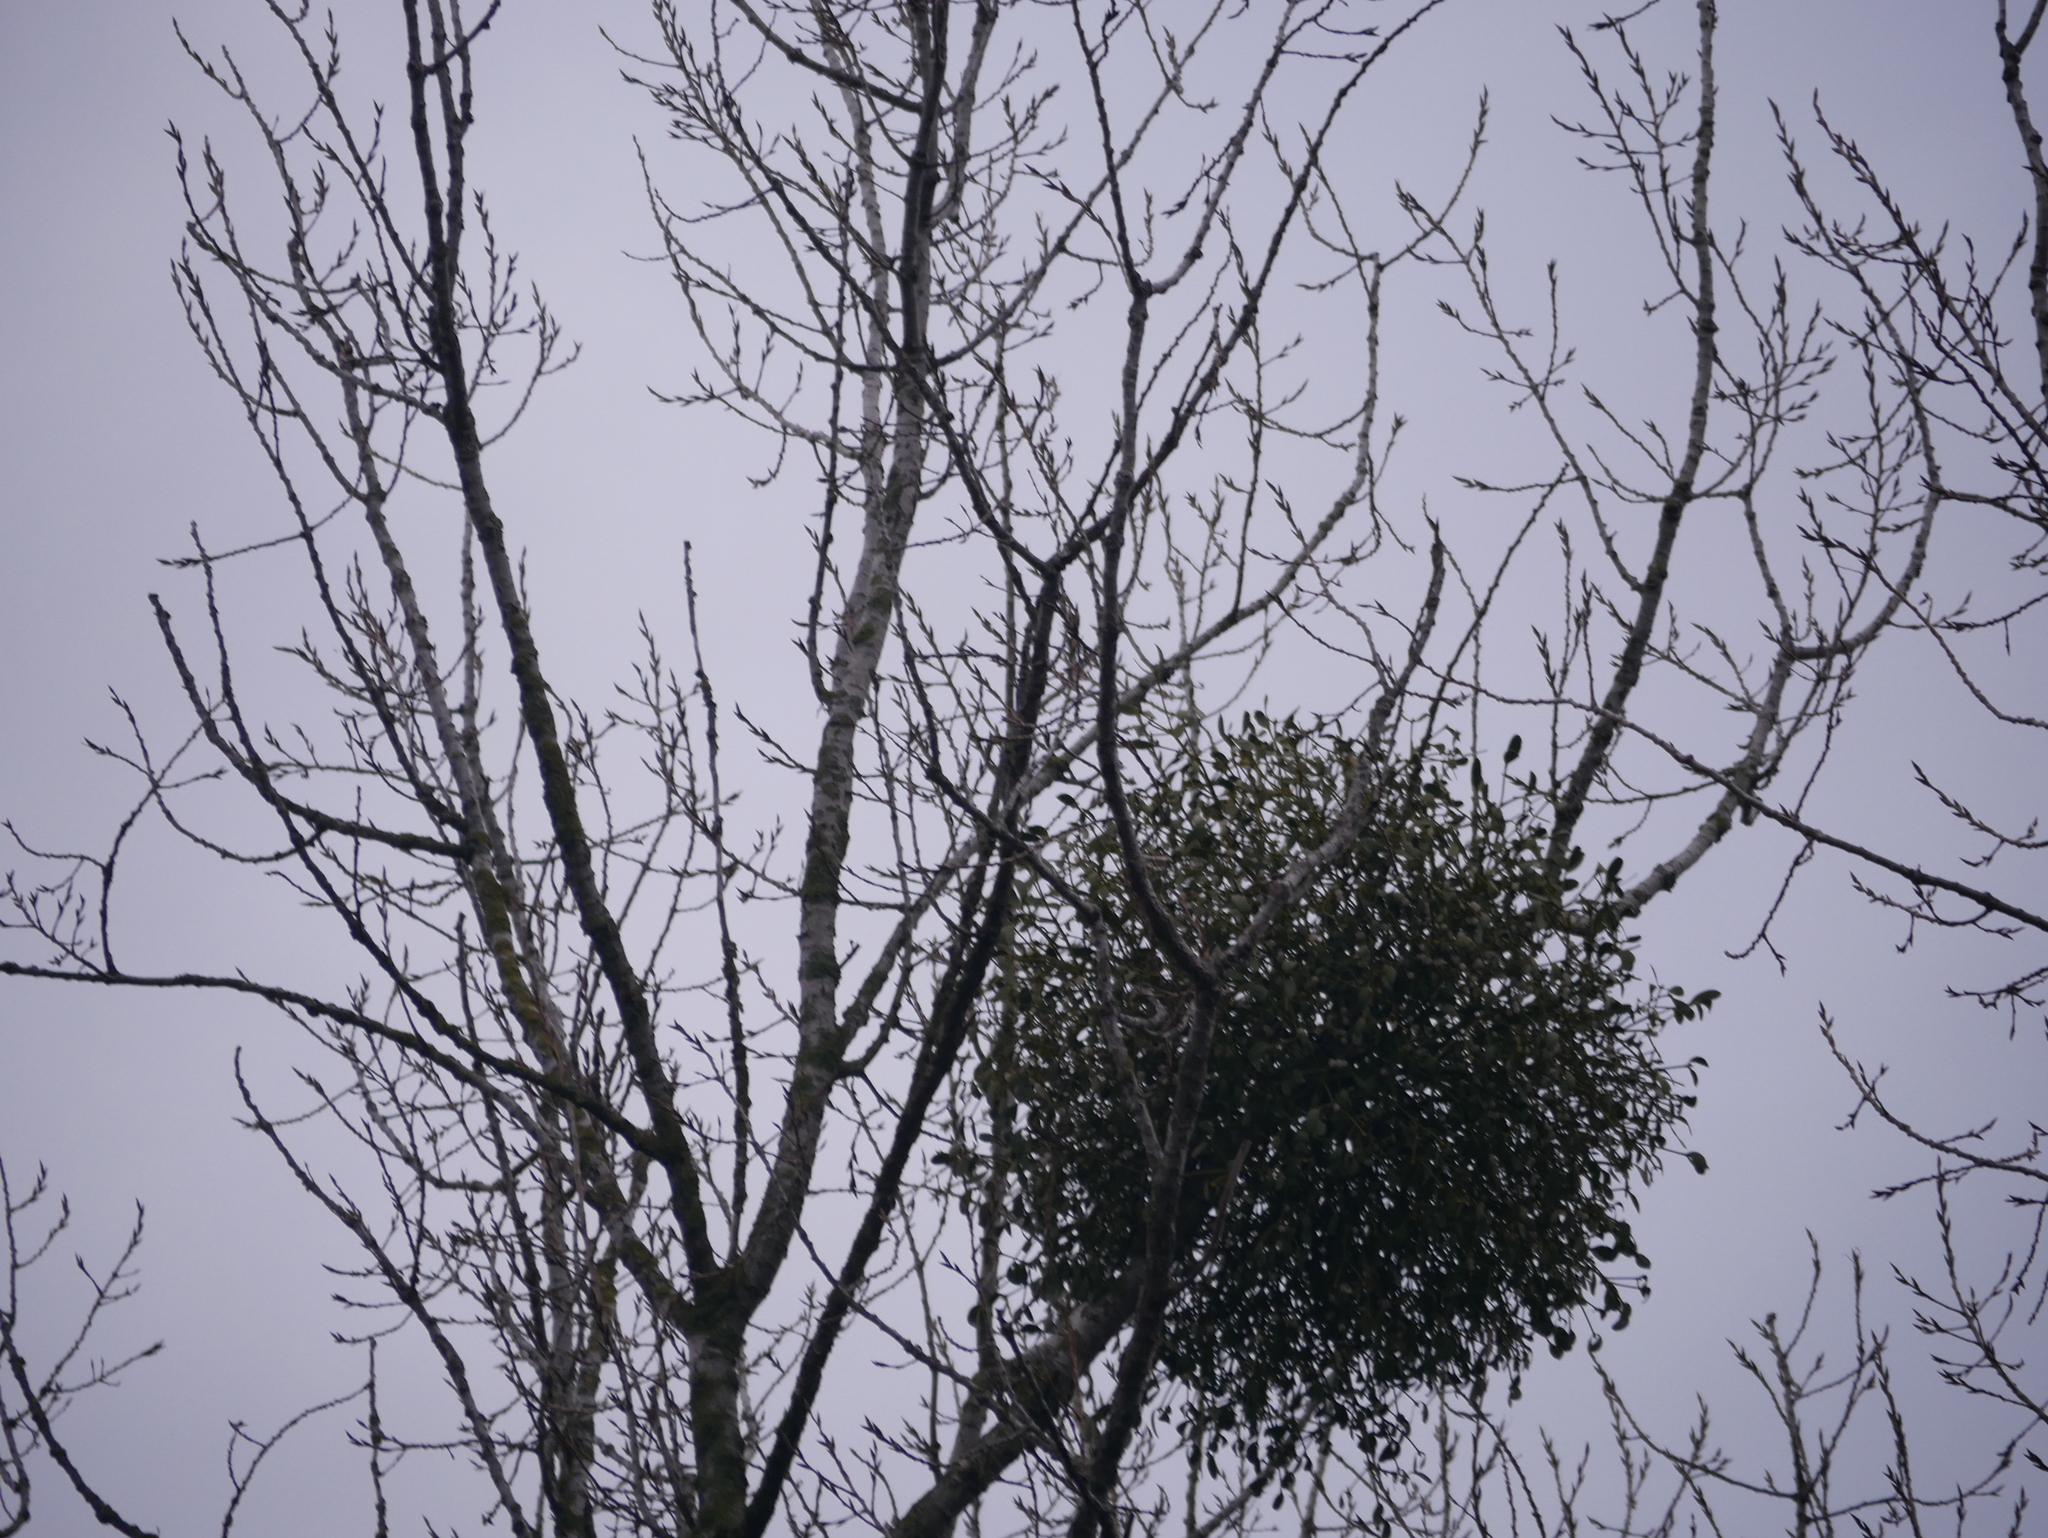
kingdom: Plantae
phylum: Tracheophyta
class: Magnoliopsida
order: Santalales
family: Viscaceae
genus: Viscum
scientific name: Viscum album
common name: Mistletoe
